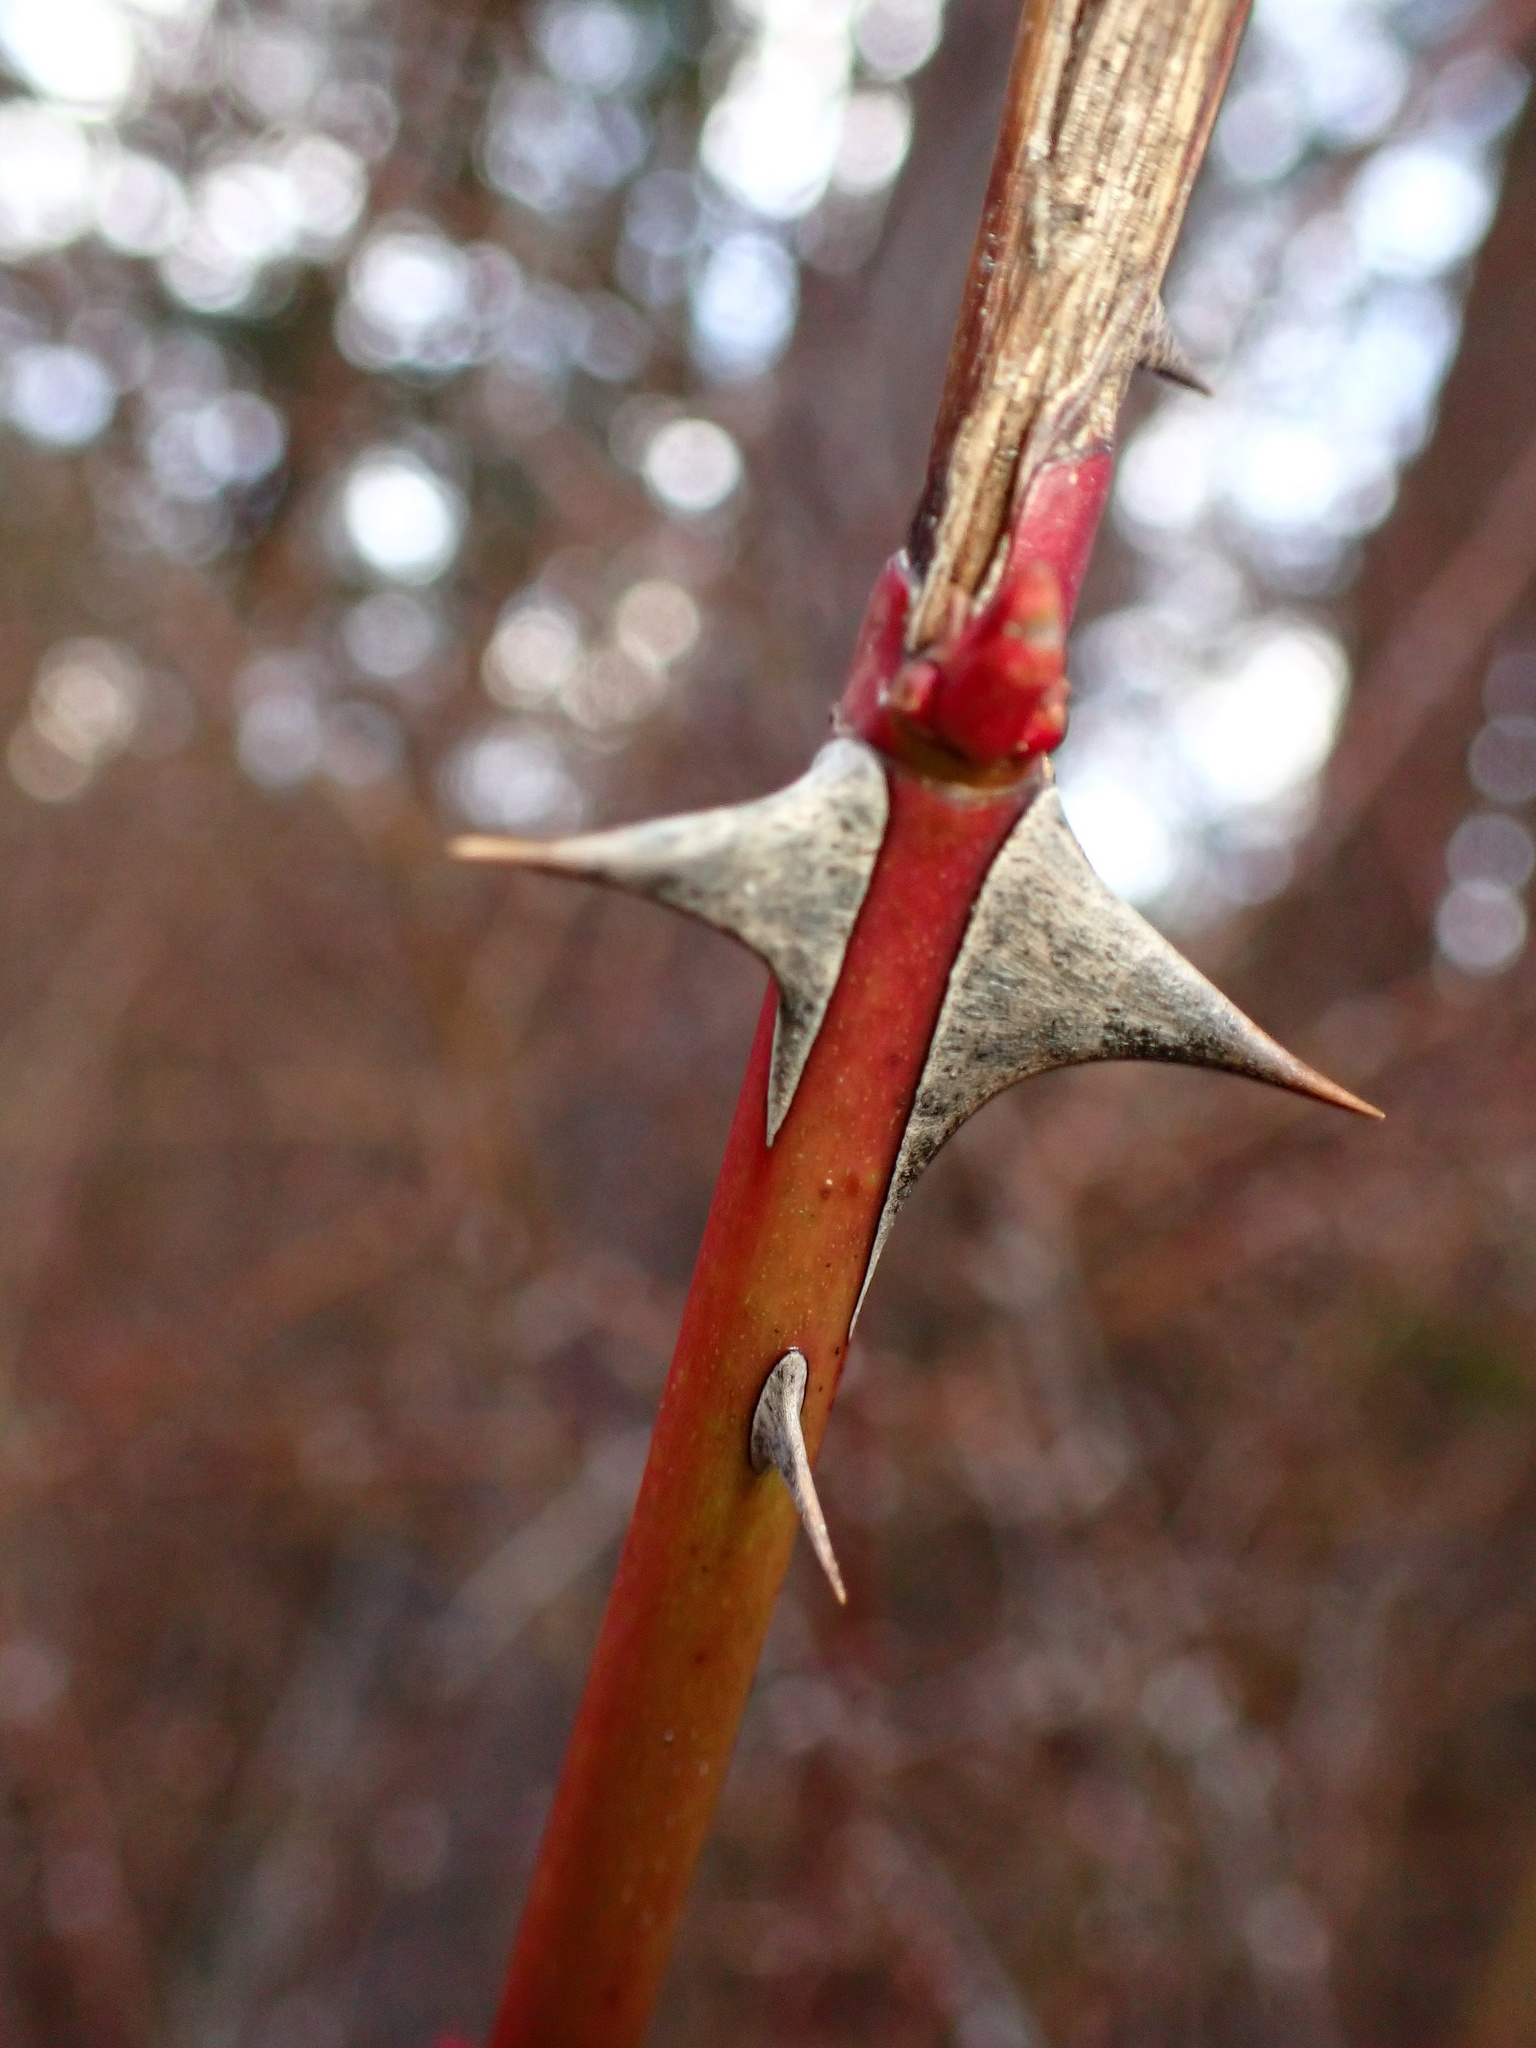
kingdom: Plantae
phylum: Tracheophyta
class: Magnoliopsida
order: Rosales
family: Rosaceae
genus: Rosa
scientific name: Rosa nutkana
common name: Nootka rose
